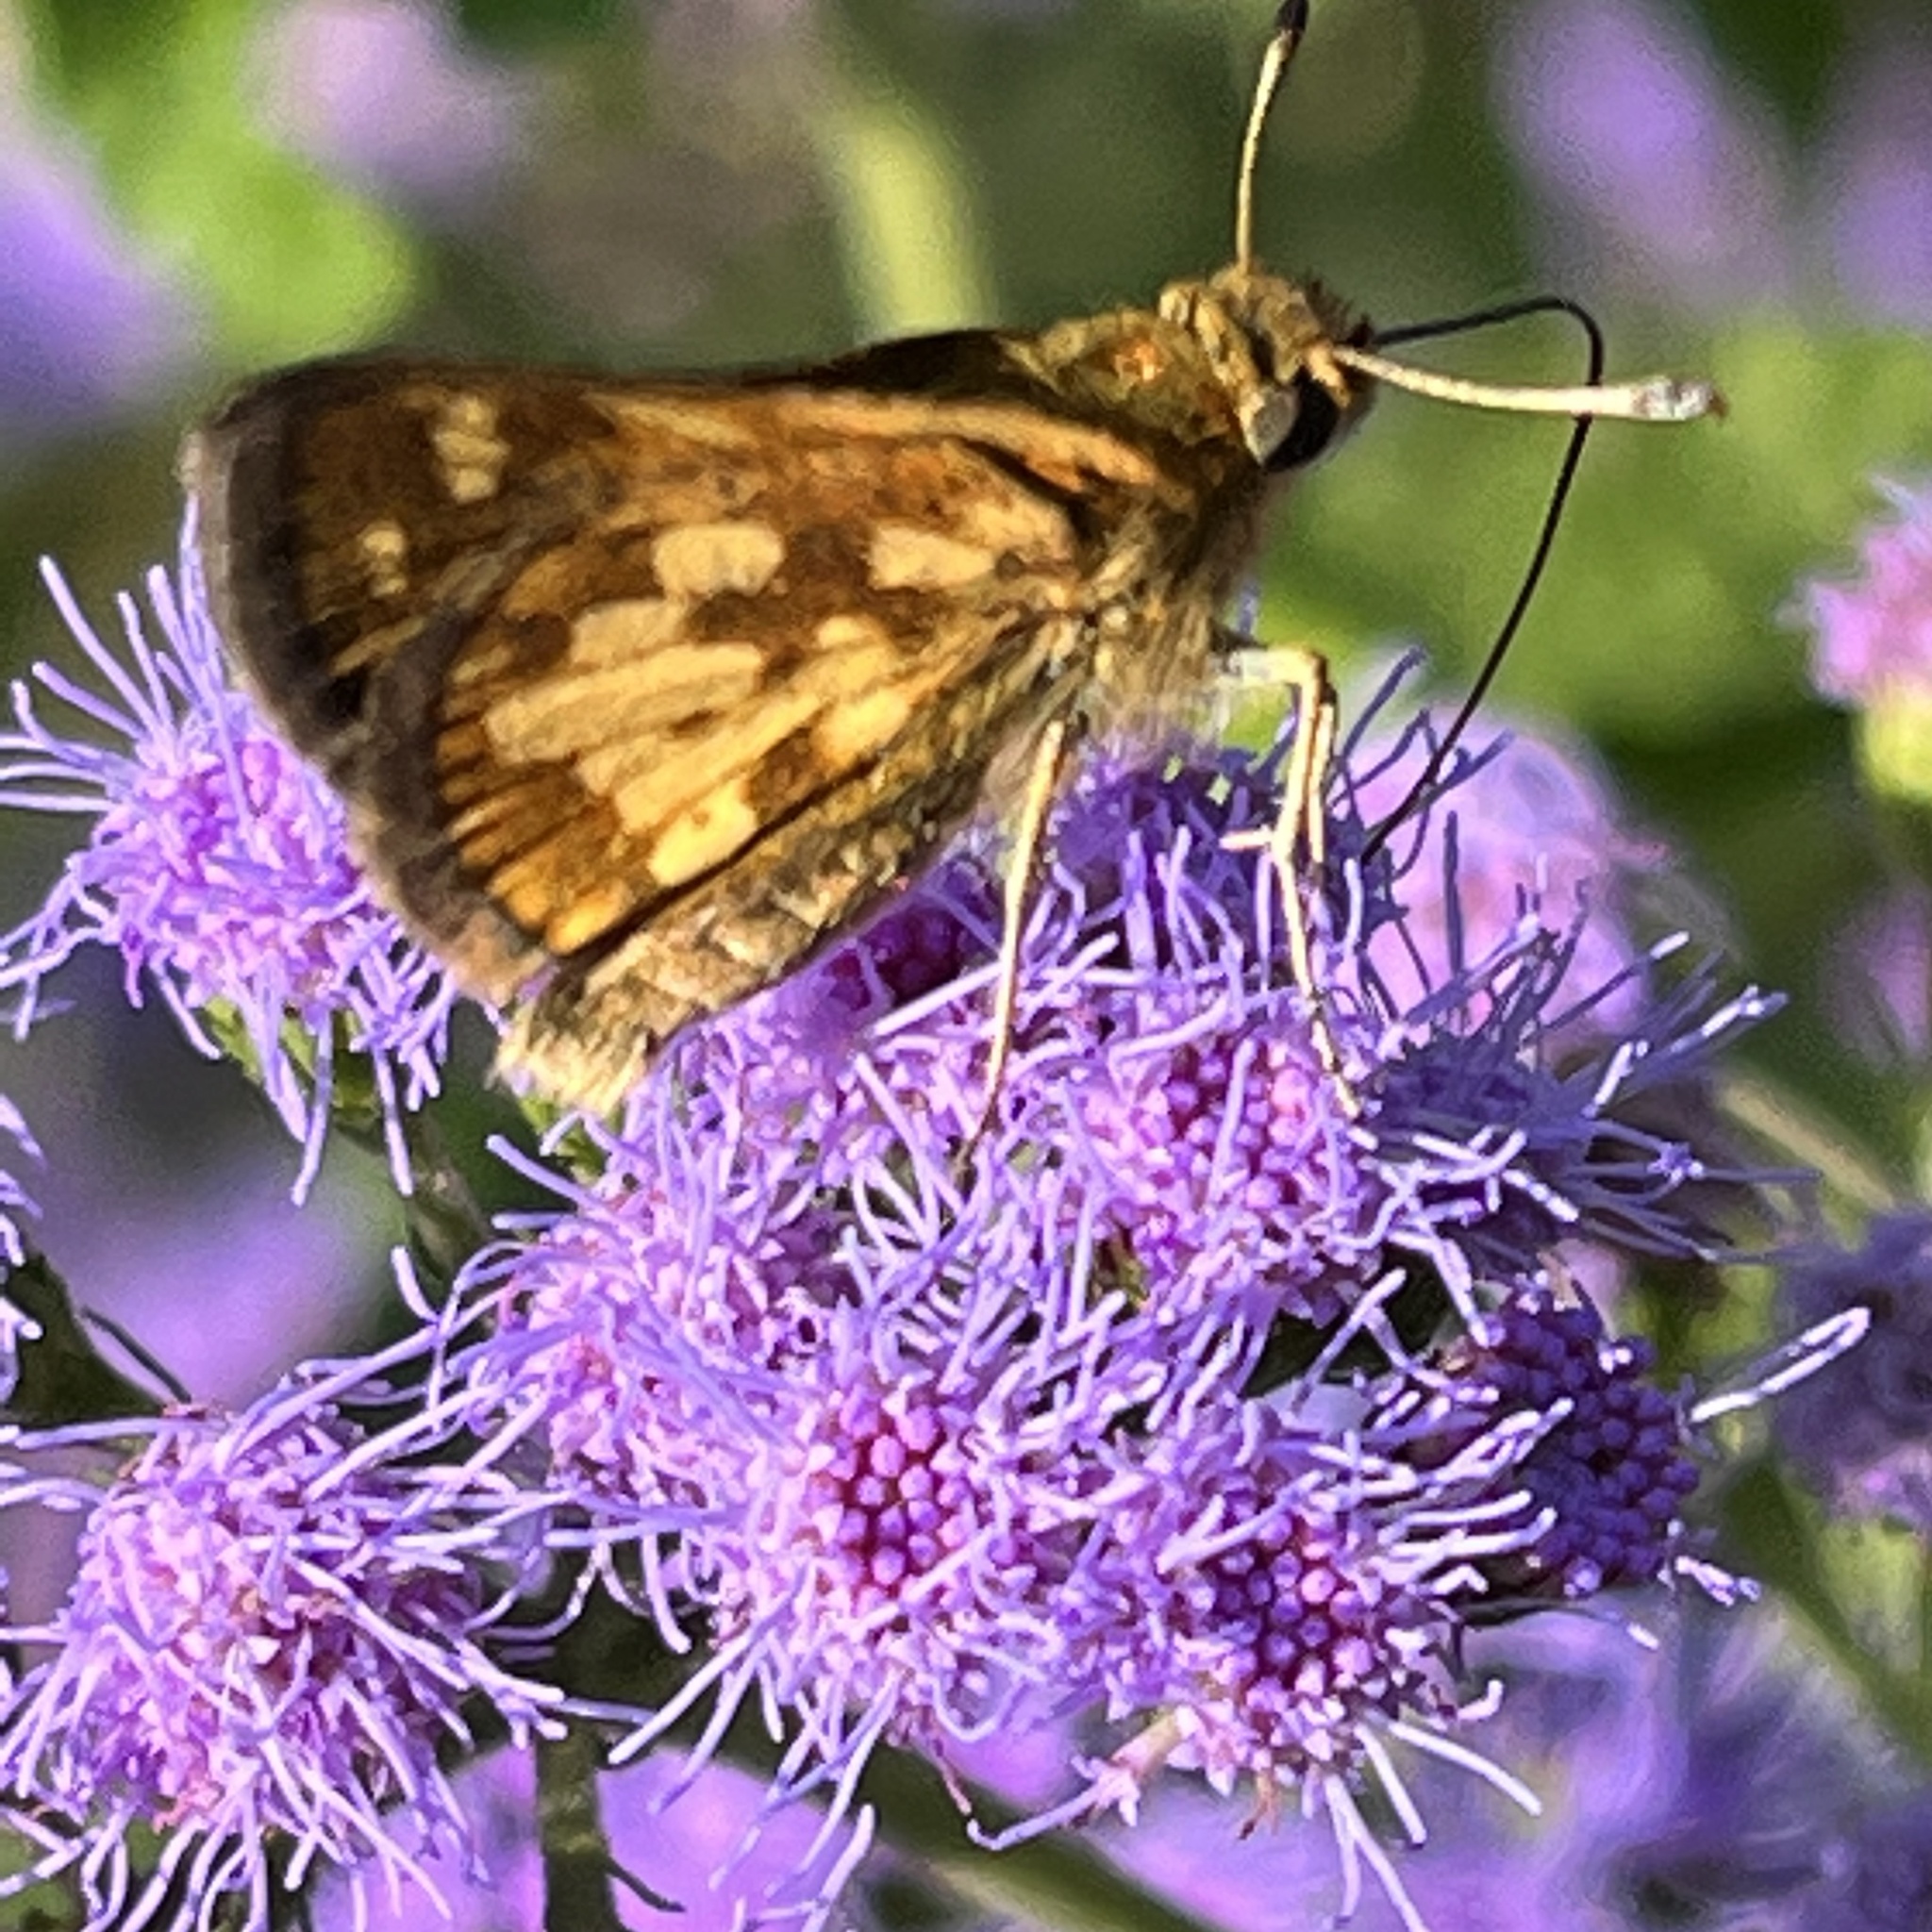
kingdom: Animalia
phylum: Arthropoda
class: Insecta
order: Lepidoptera
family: Hesperiidae
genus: Polites
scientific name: Polites coras
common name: Peck's skipper
